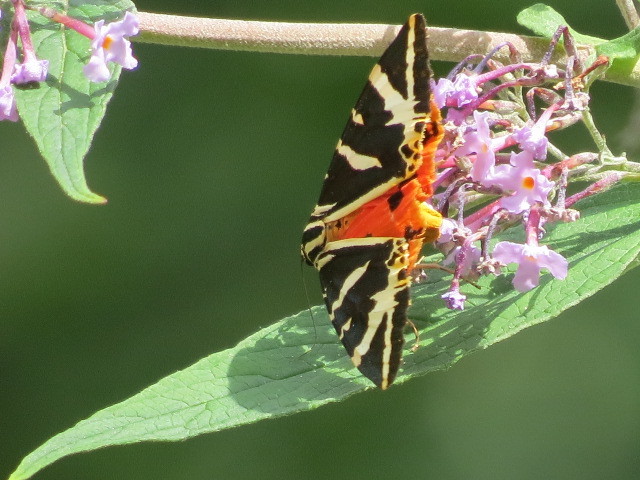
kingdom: Animalia
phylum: Arthropoda
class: Insecta
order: Lepidoptera
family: Erebidae
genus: Euplagia
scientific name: Euplagia quadripunctaria
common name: Jersey tiger
